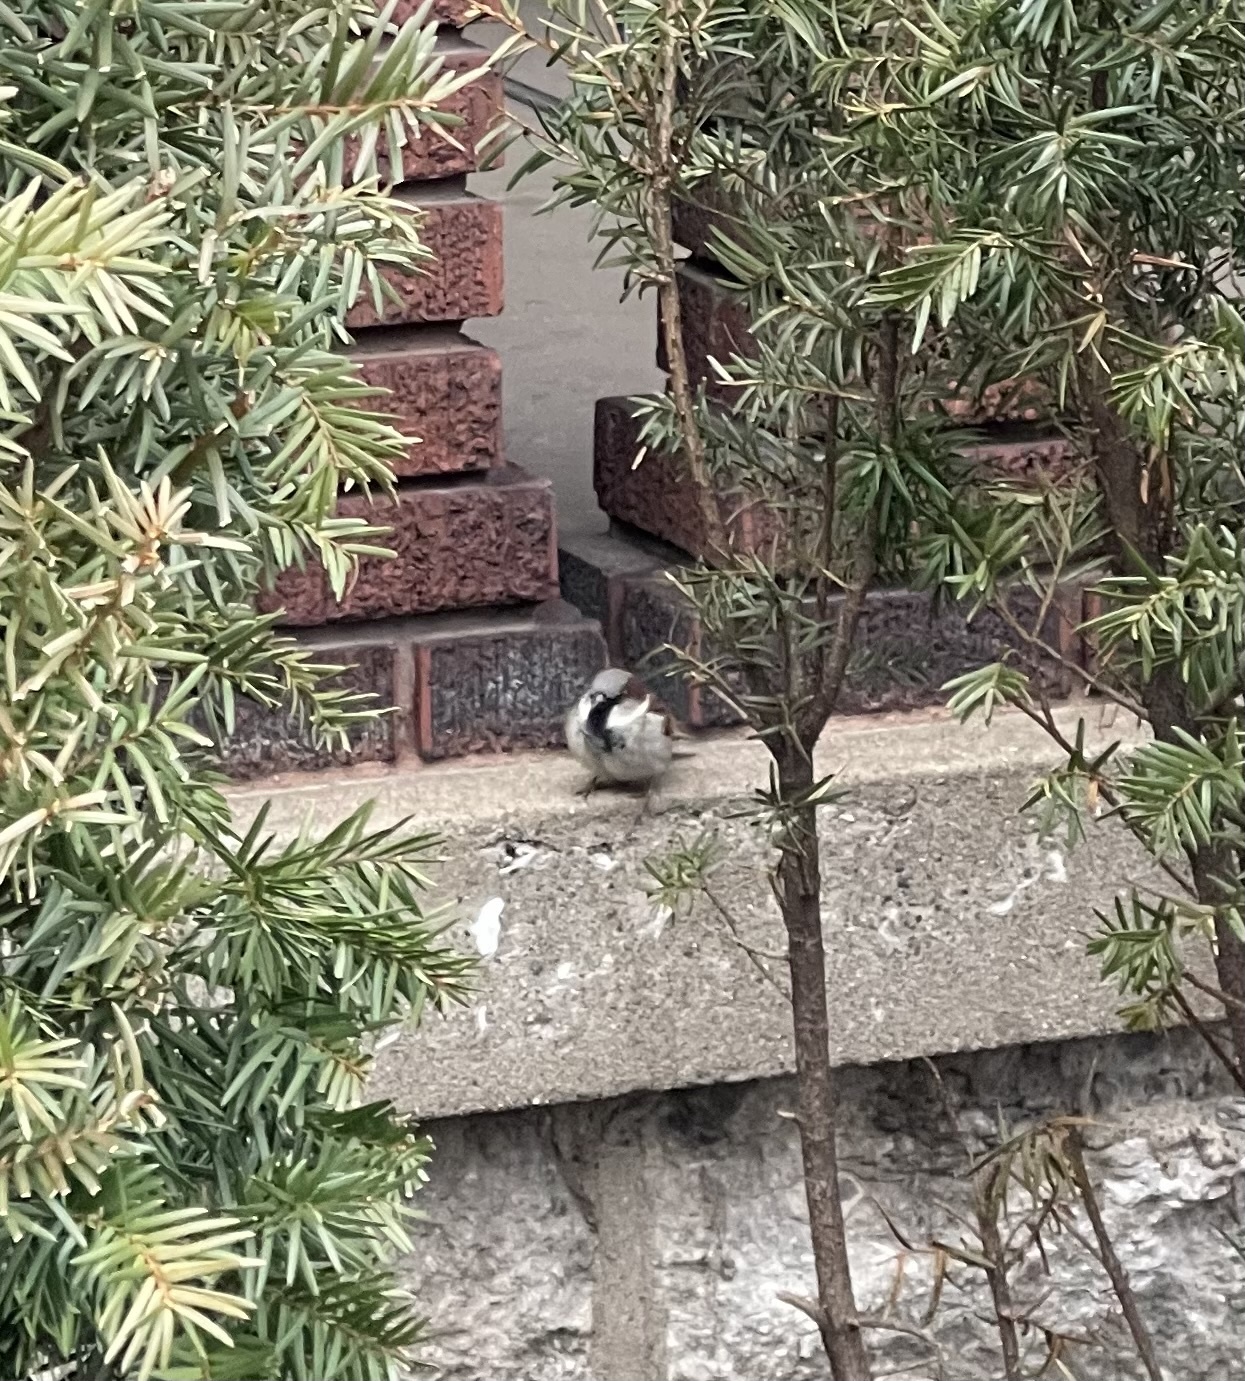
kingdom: Animalia
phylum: Chordata
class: Aves
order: Passeriformes
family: Passeridae
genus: Passer
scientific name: Passer domesticus
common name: House sparrow
